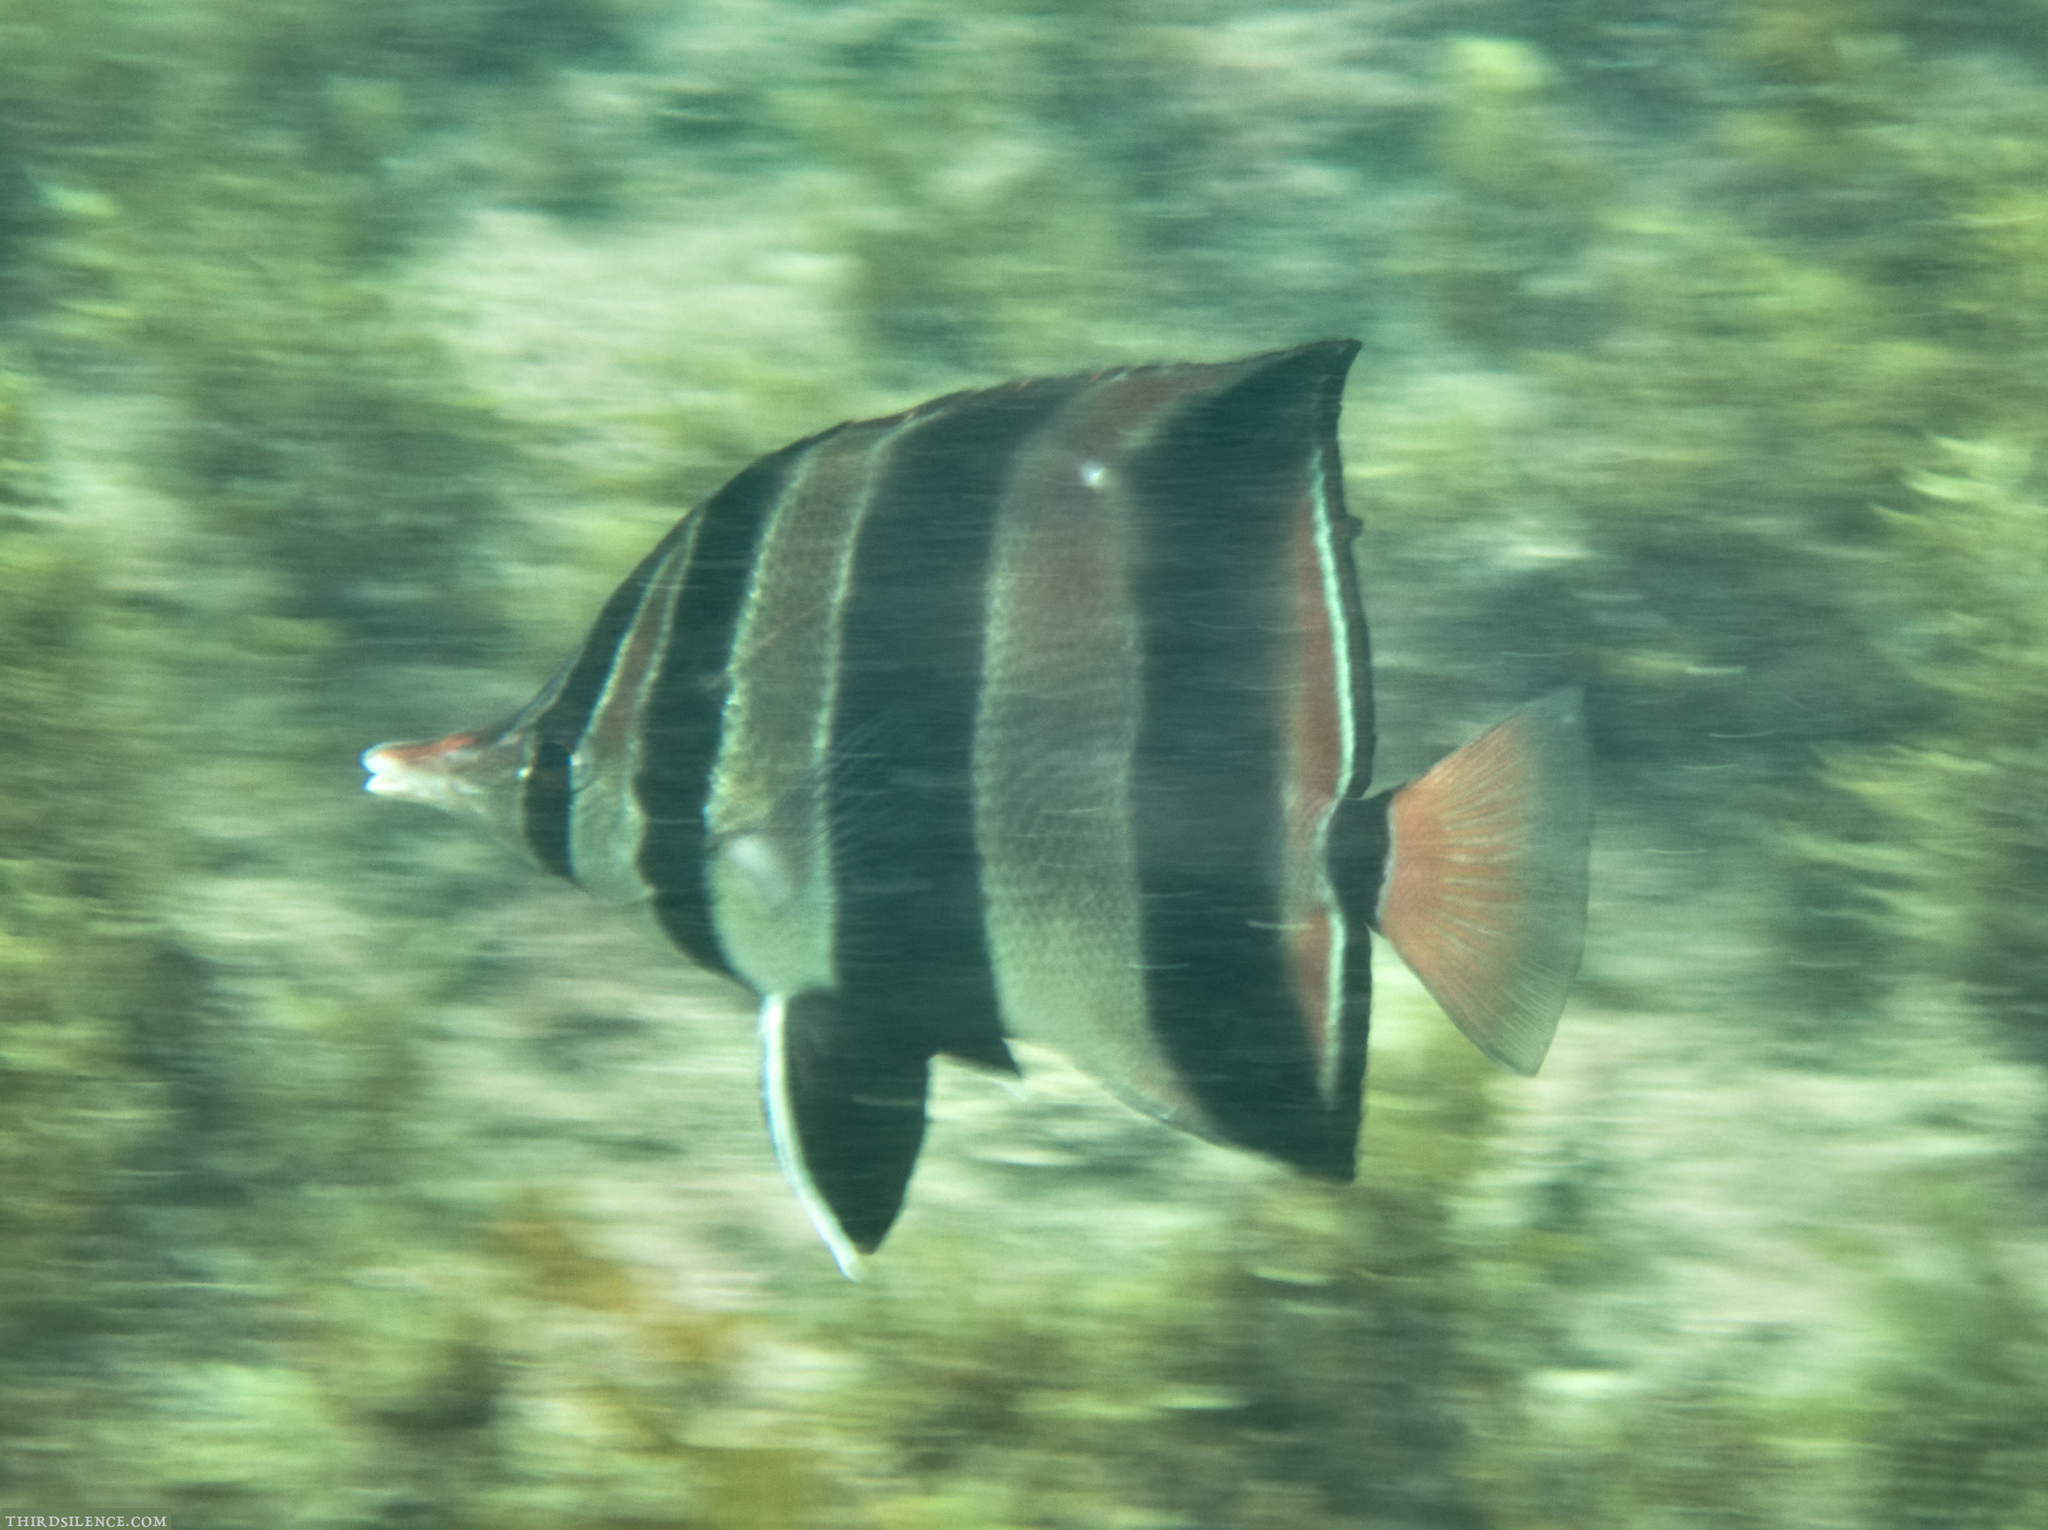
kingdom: Animalia
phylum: Chordata
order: Perciformes
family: Chaetodontidae
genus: Chelmonops
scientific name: Chelmonops truncatus
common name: Truncate coralfish
